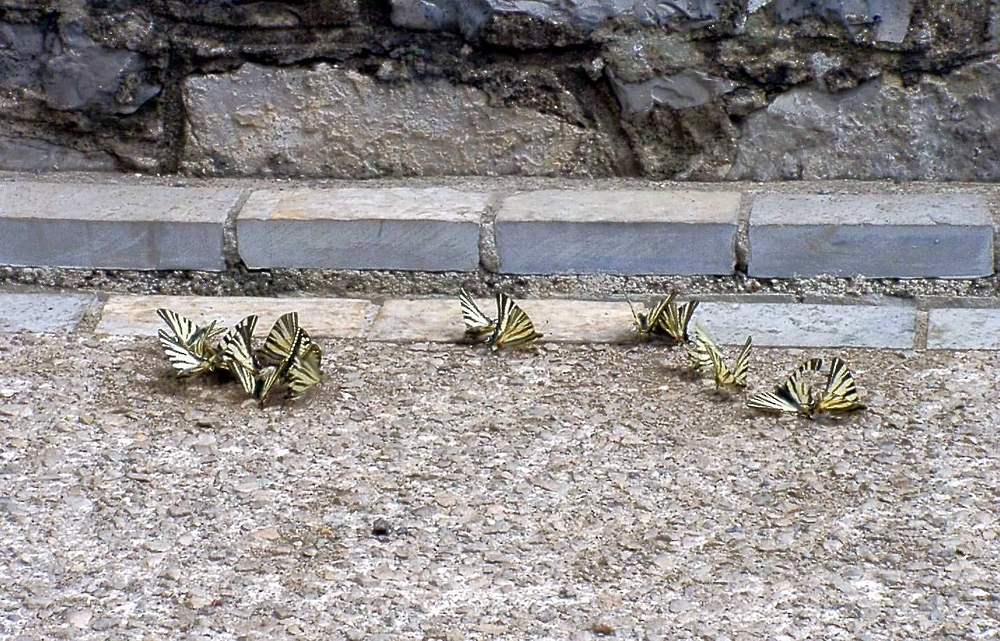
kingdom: Animalia
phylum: Arthropoda
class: Insecta
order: Lepidoptera
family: Papilionidae
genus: Iphiclides
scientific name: Iphiclides podalirius
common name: Scarce swallowtail
